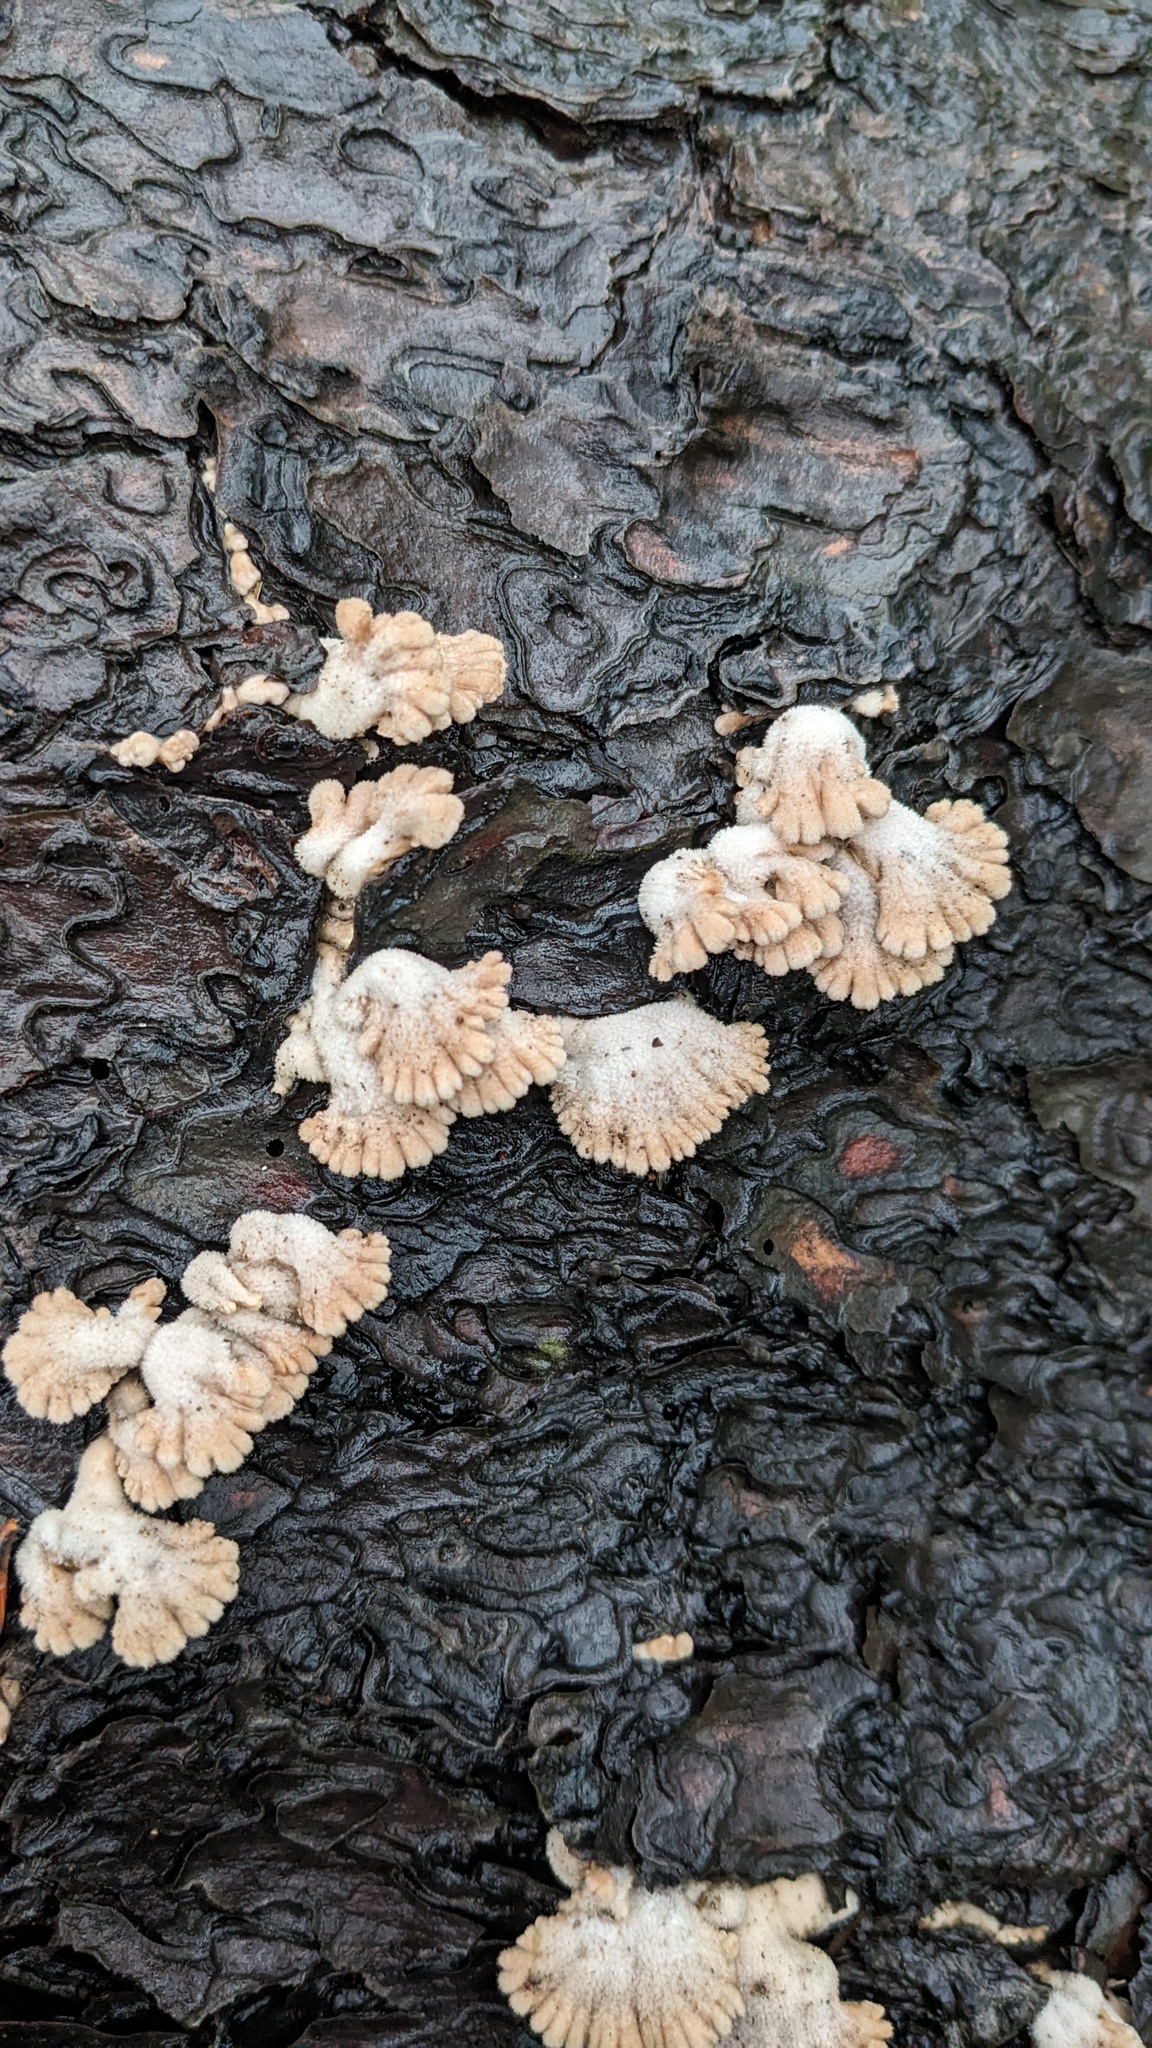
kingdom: Fungi
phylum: Basidiomycota
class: Agaricomycetes
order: Agaricales
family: Schizophyllaceae
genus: Schizophyllum
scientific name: Schizophyllum commune
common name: Common porecrust
